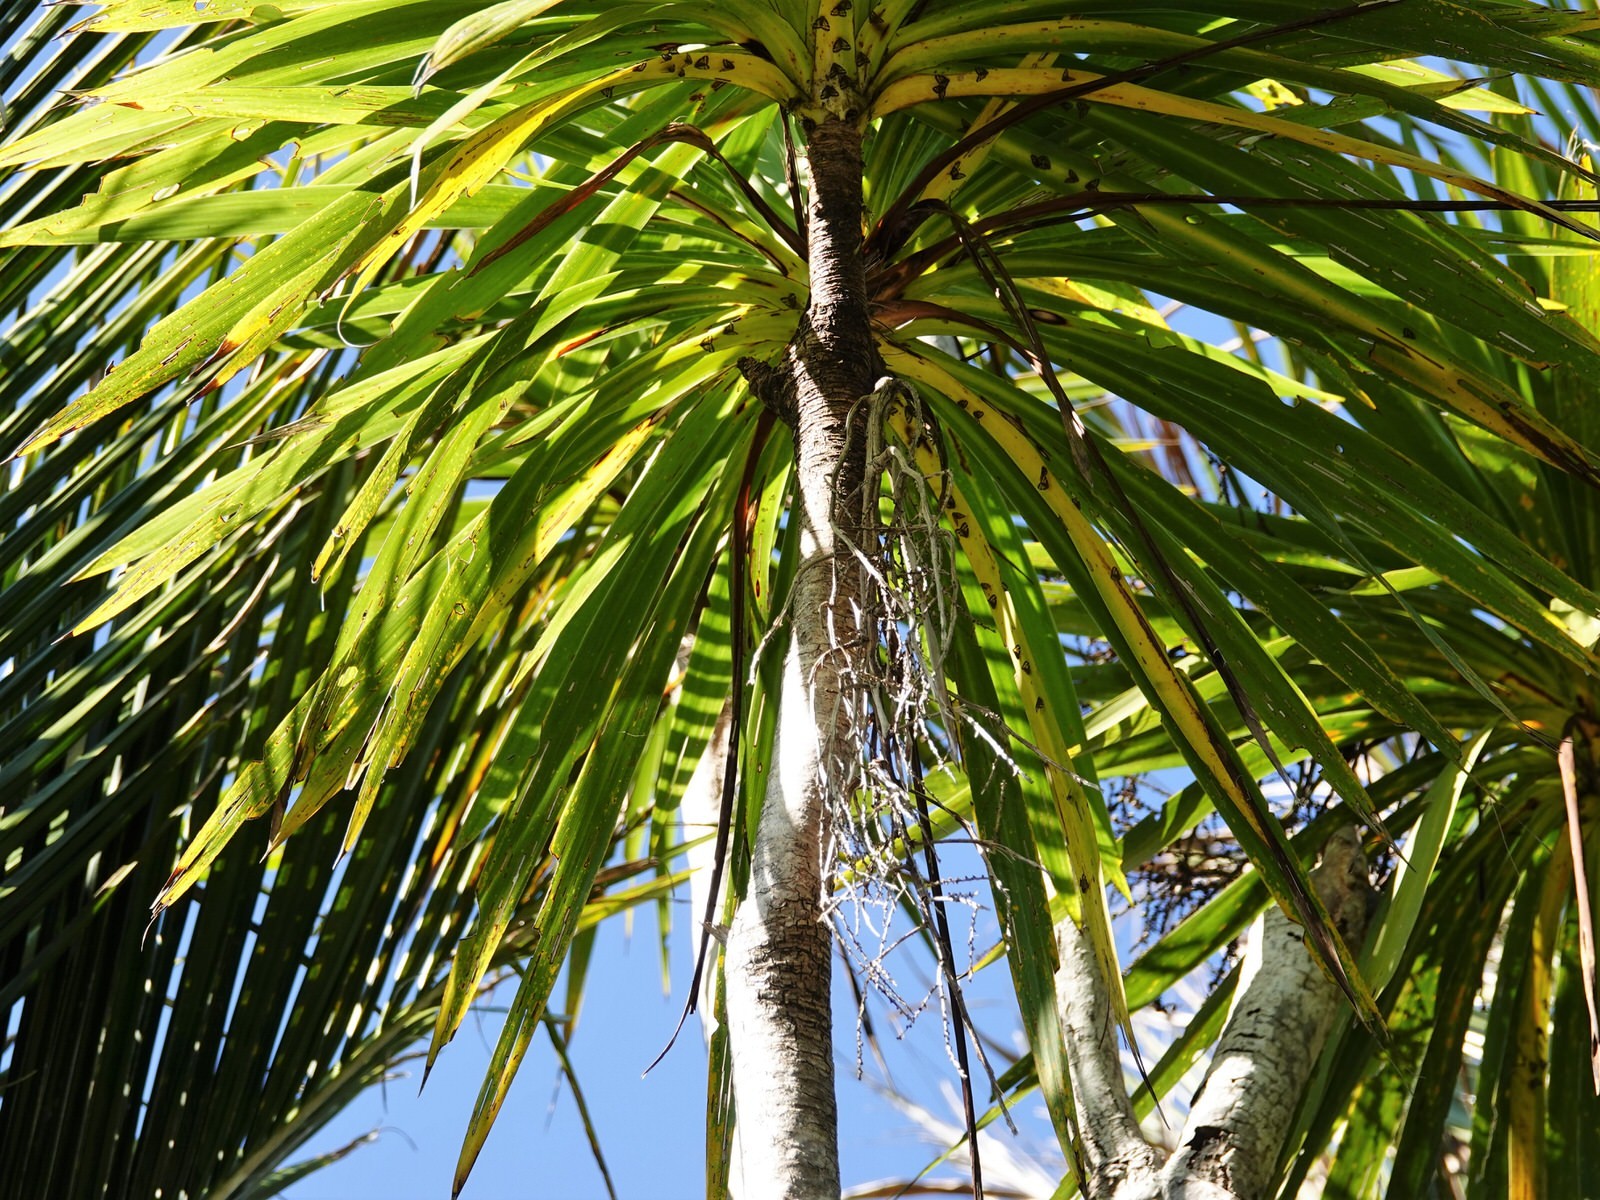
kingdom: Plantae
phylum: Tracheophyta
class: Liliopsida
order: Asparagales
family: Asparagaceae
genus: Cordyline
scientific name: Cordyline australis
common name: Cabbage-palm
